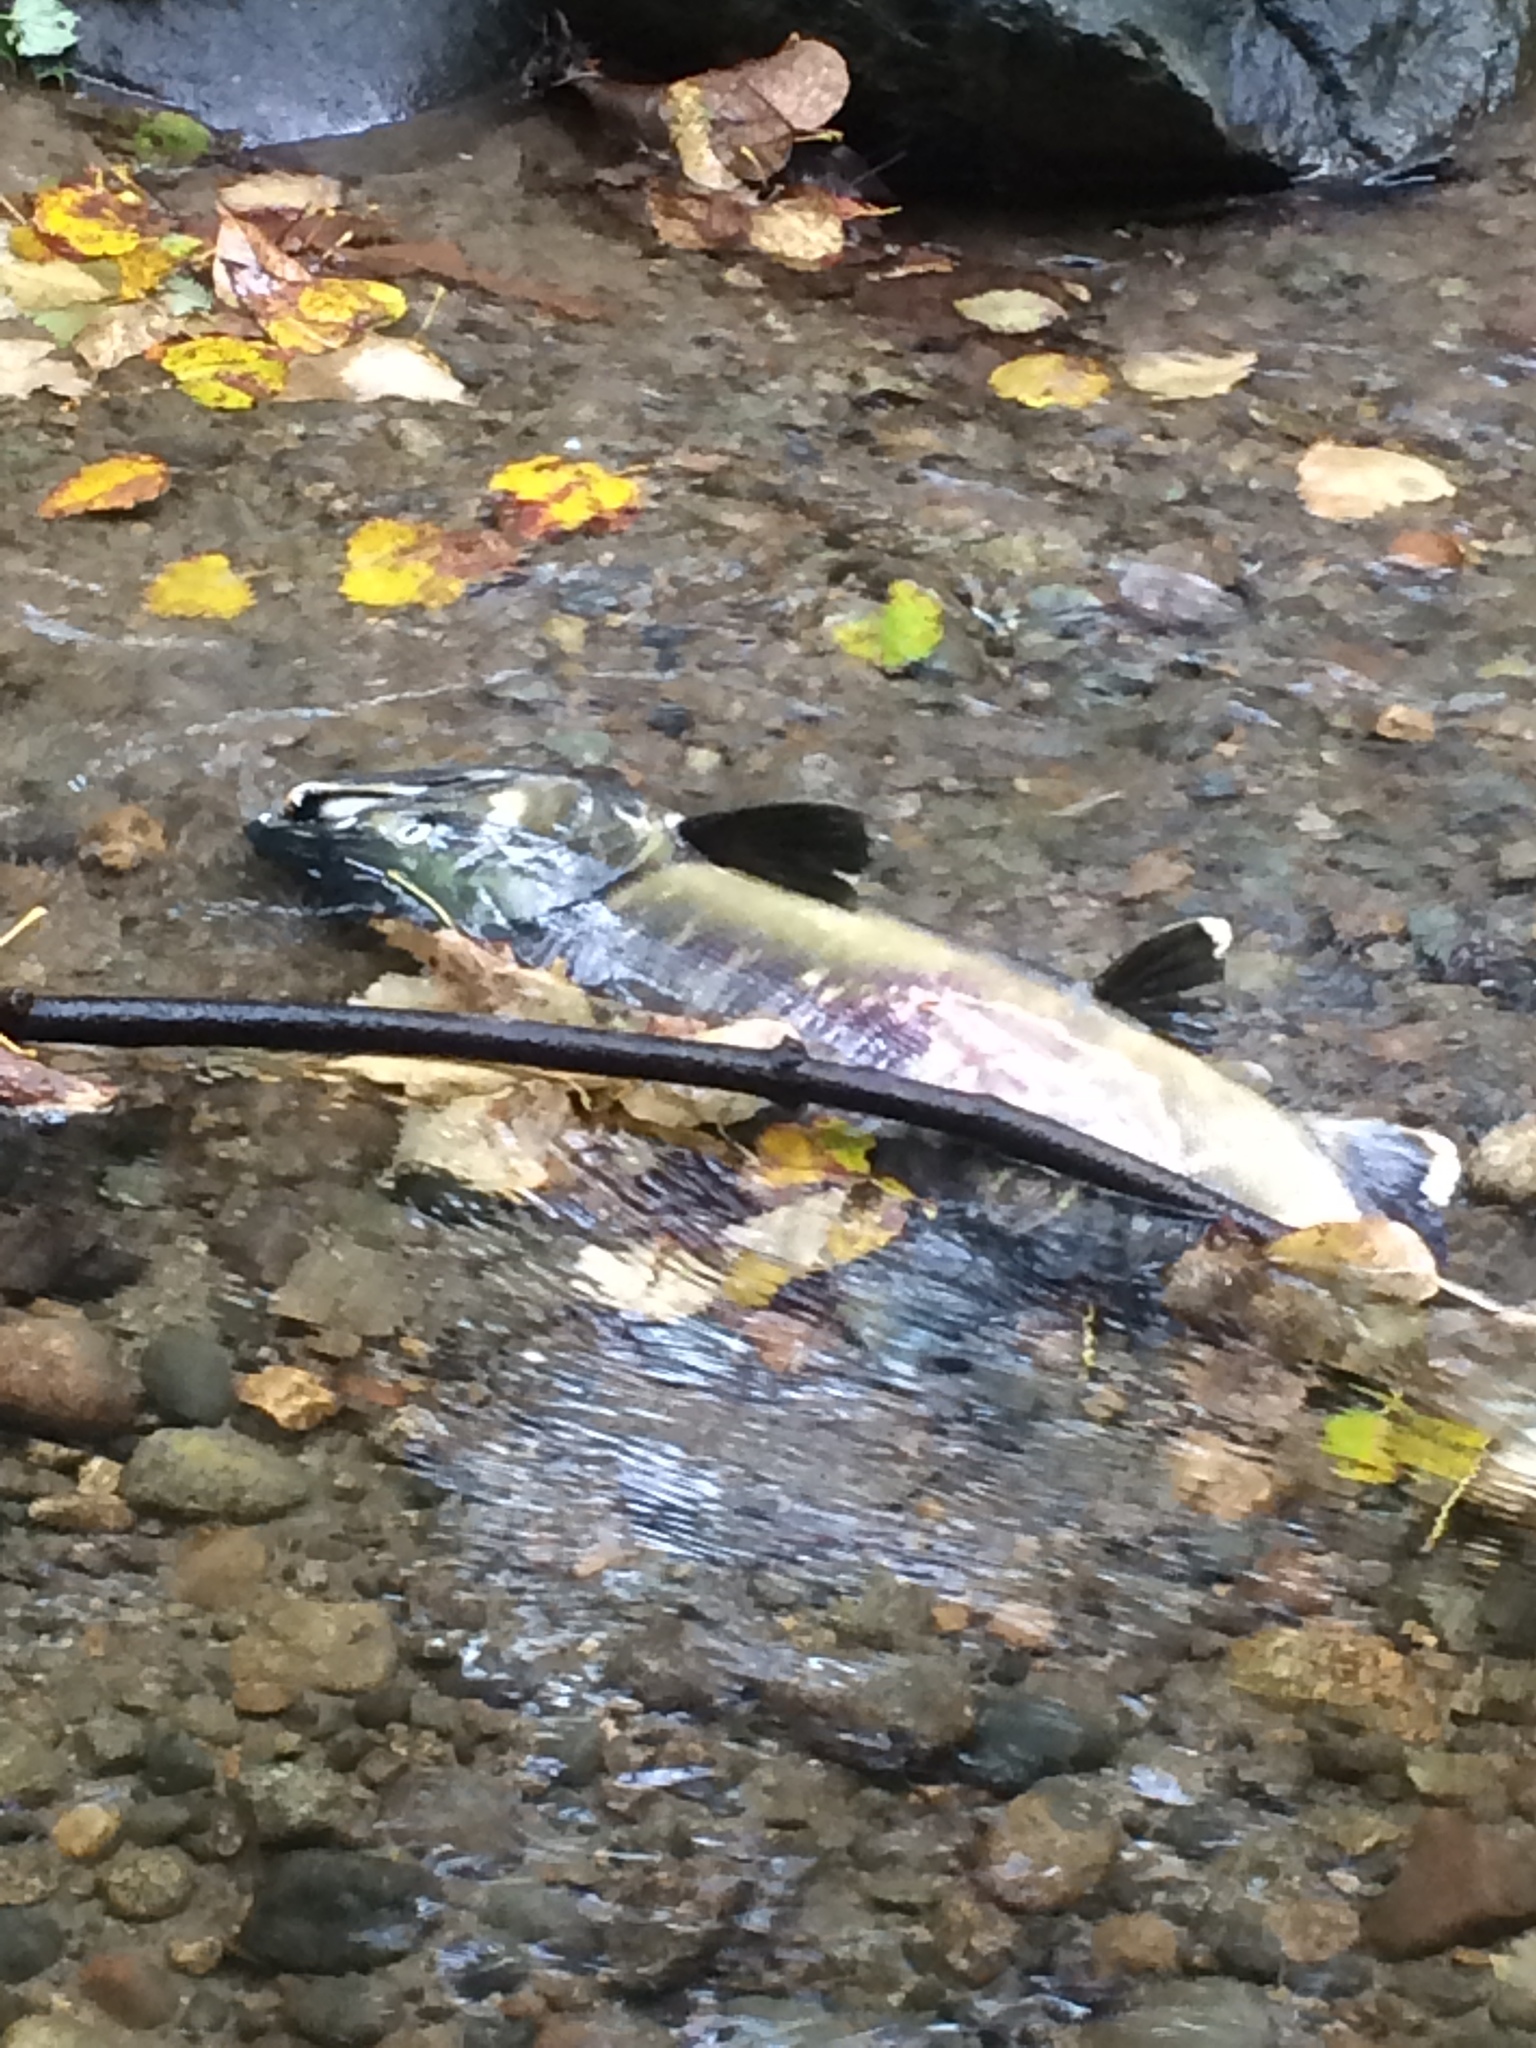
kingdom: Animalia
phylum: Chordata
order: Salmoniformes
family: Salmonidae
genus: Oncorhynchus
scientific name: Oncorhynchus keta
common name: Chum salmon
